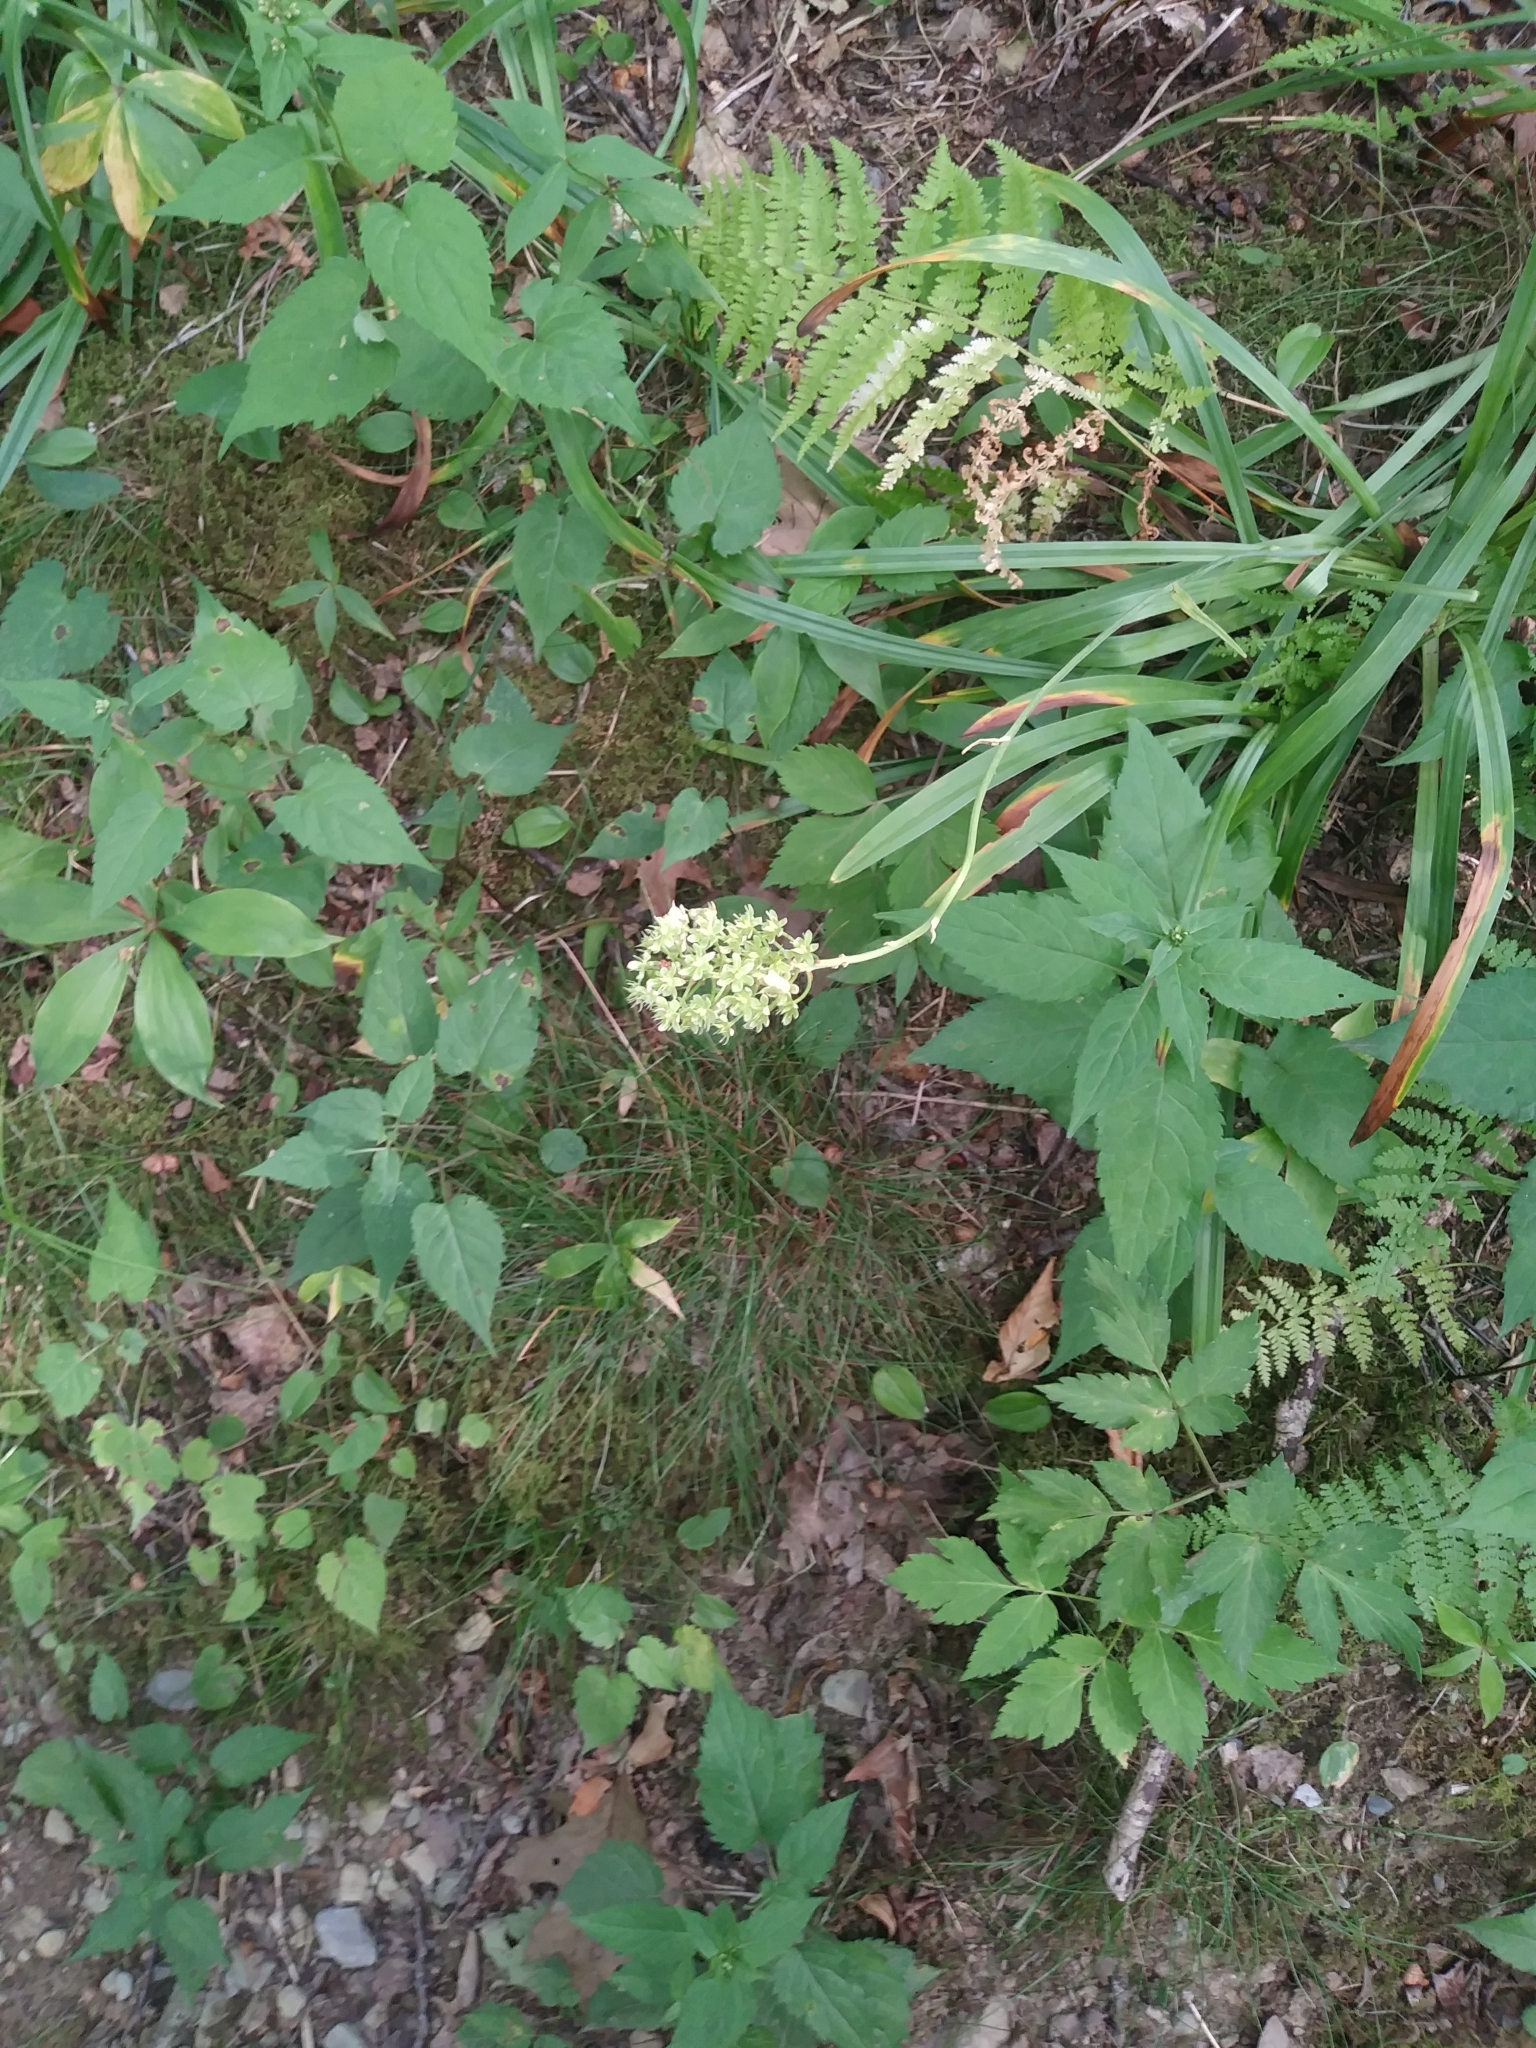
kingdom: Plantae
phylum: Tracheophyta
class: Liliopsida
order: Liliales
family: Melanthiaceae
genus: Amianthium
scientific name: Amianthium muscitoxicum
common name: Fly-poison
